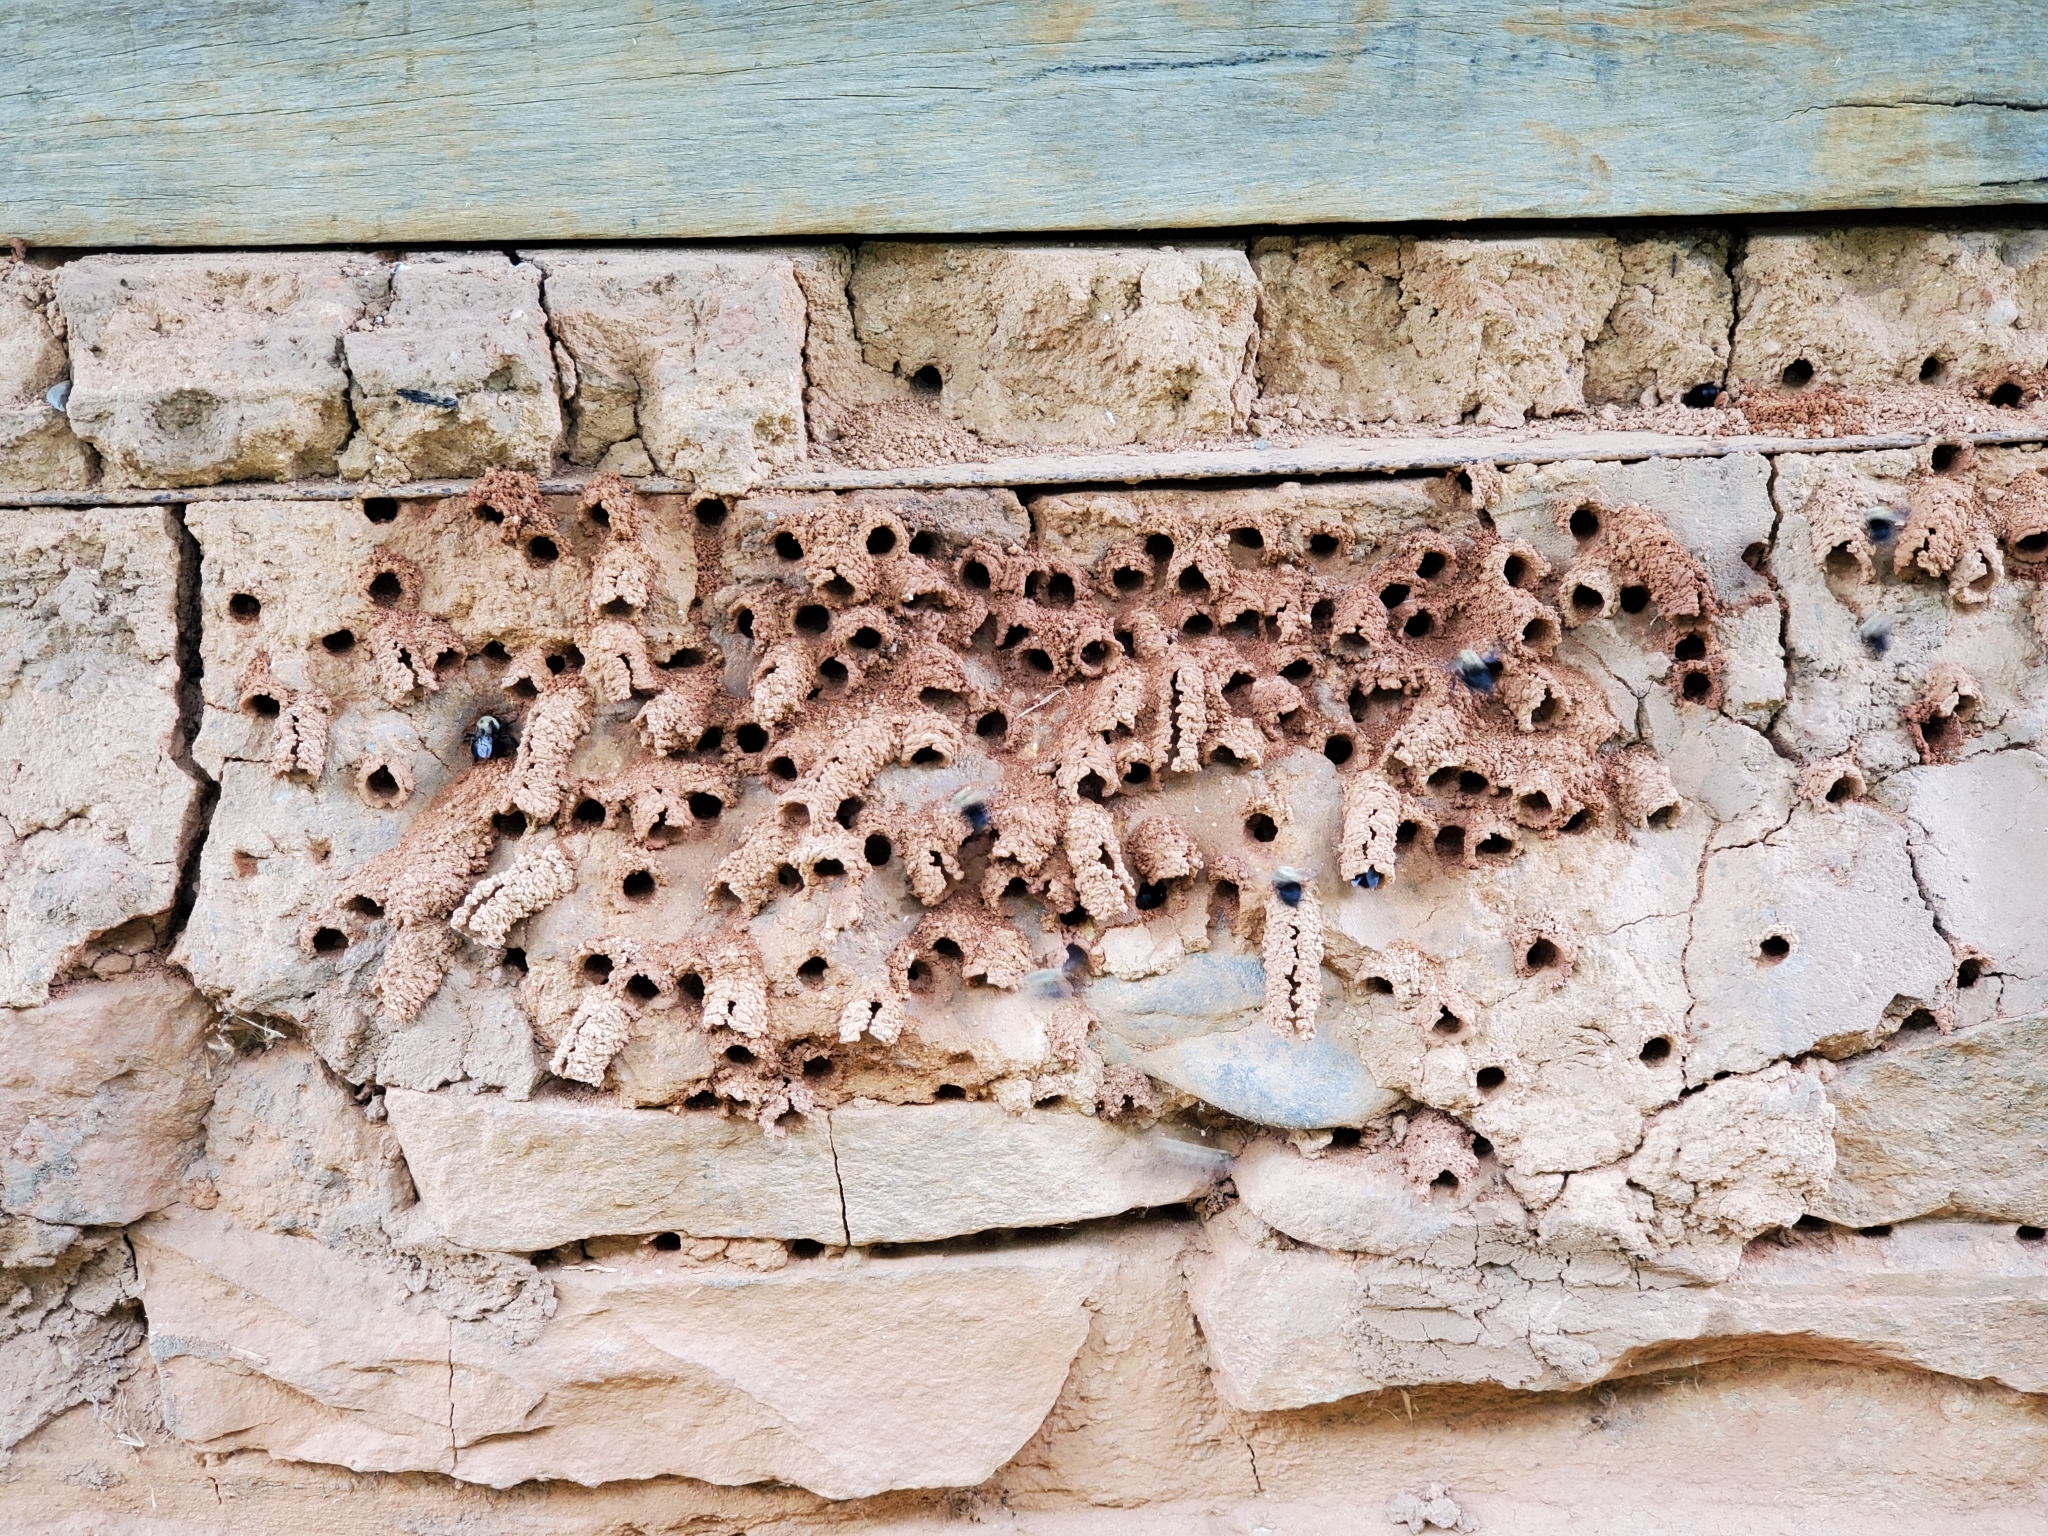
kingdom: Animalia
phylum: Arthropoda
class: Insecta
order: Hymenoptera
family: Apidae
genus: Anthophora
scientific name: Anthophora abrupta
